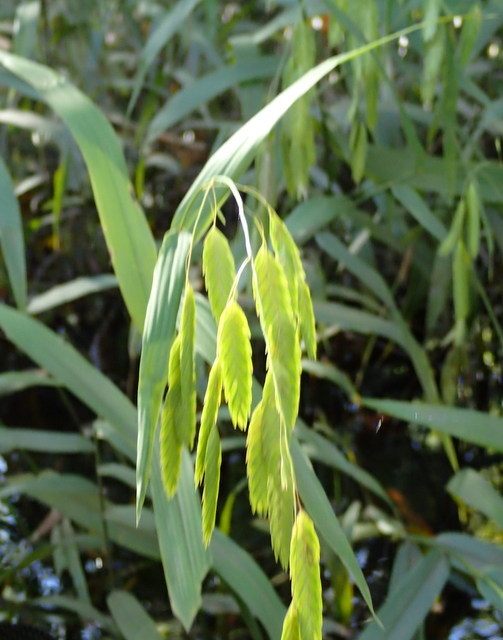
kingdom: Plantae
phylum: Tracheophyta
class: Liliopsida
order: Poales
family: Poaceae
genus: Chasmanthium
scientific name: Chasmanthium latifolium
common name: Broad-leaved chasmanthium
